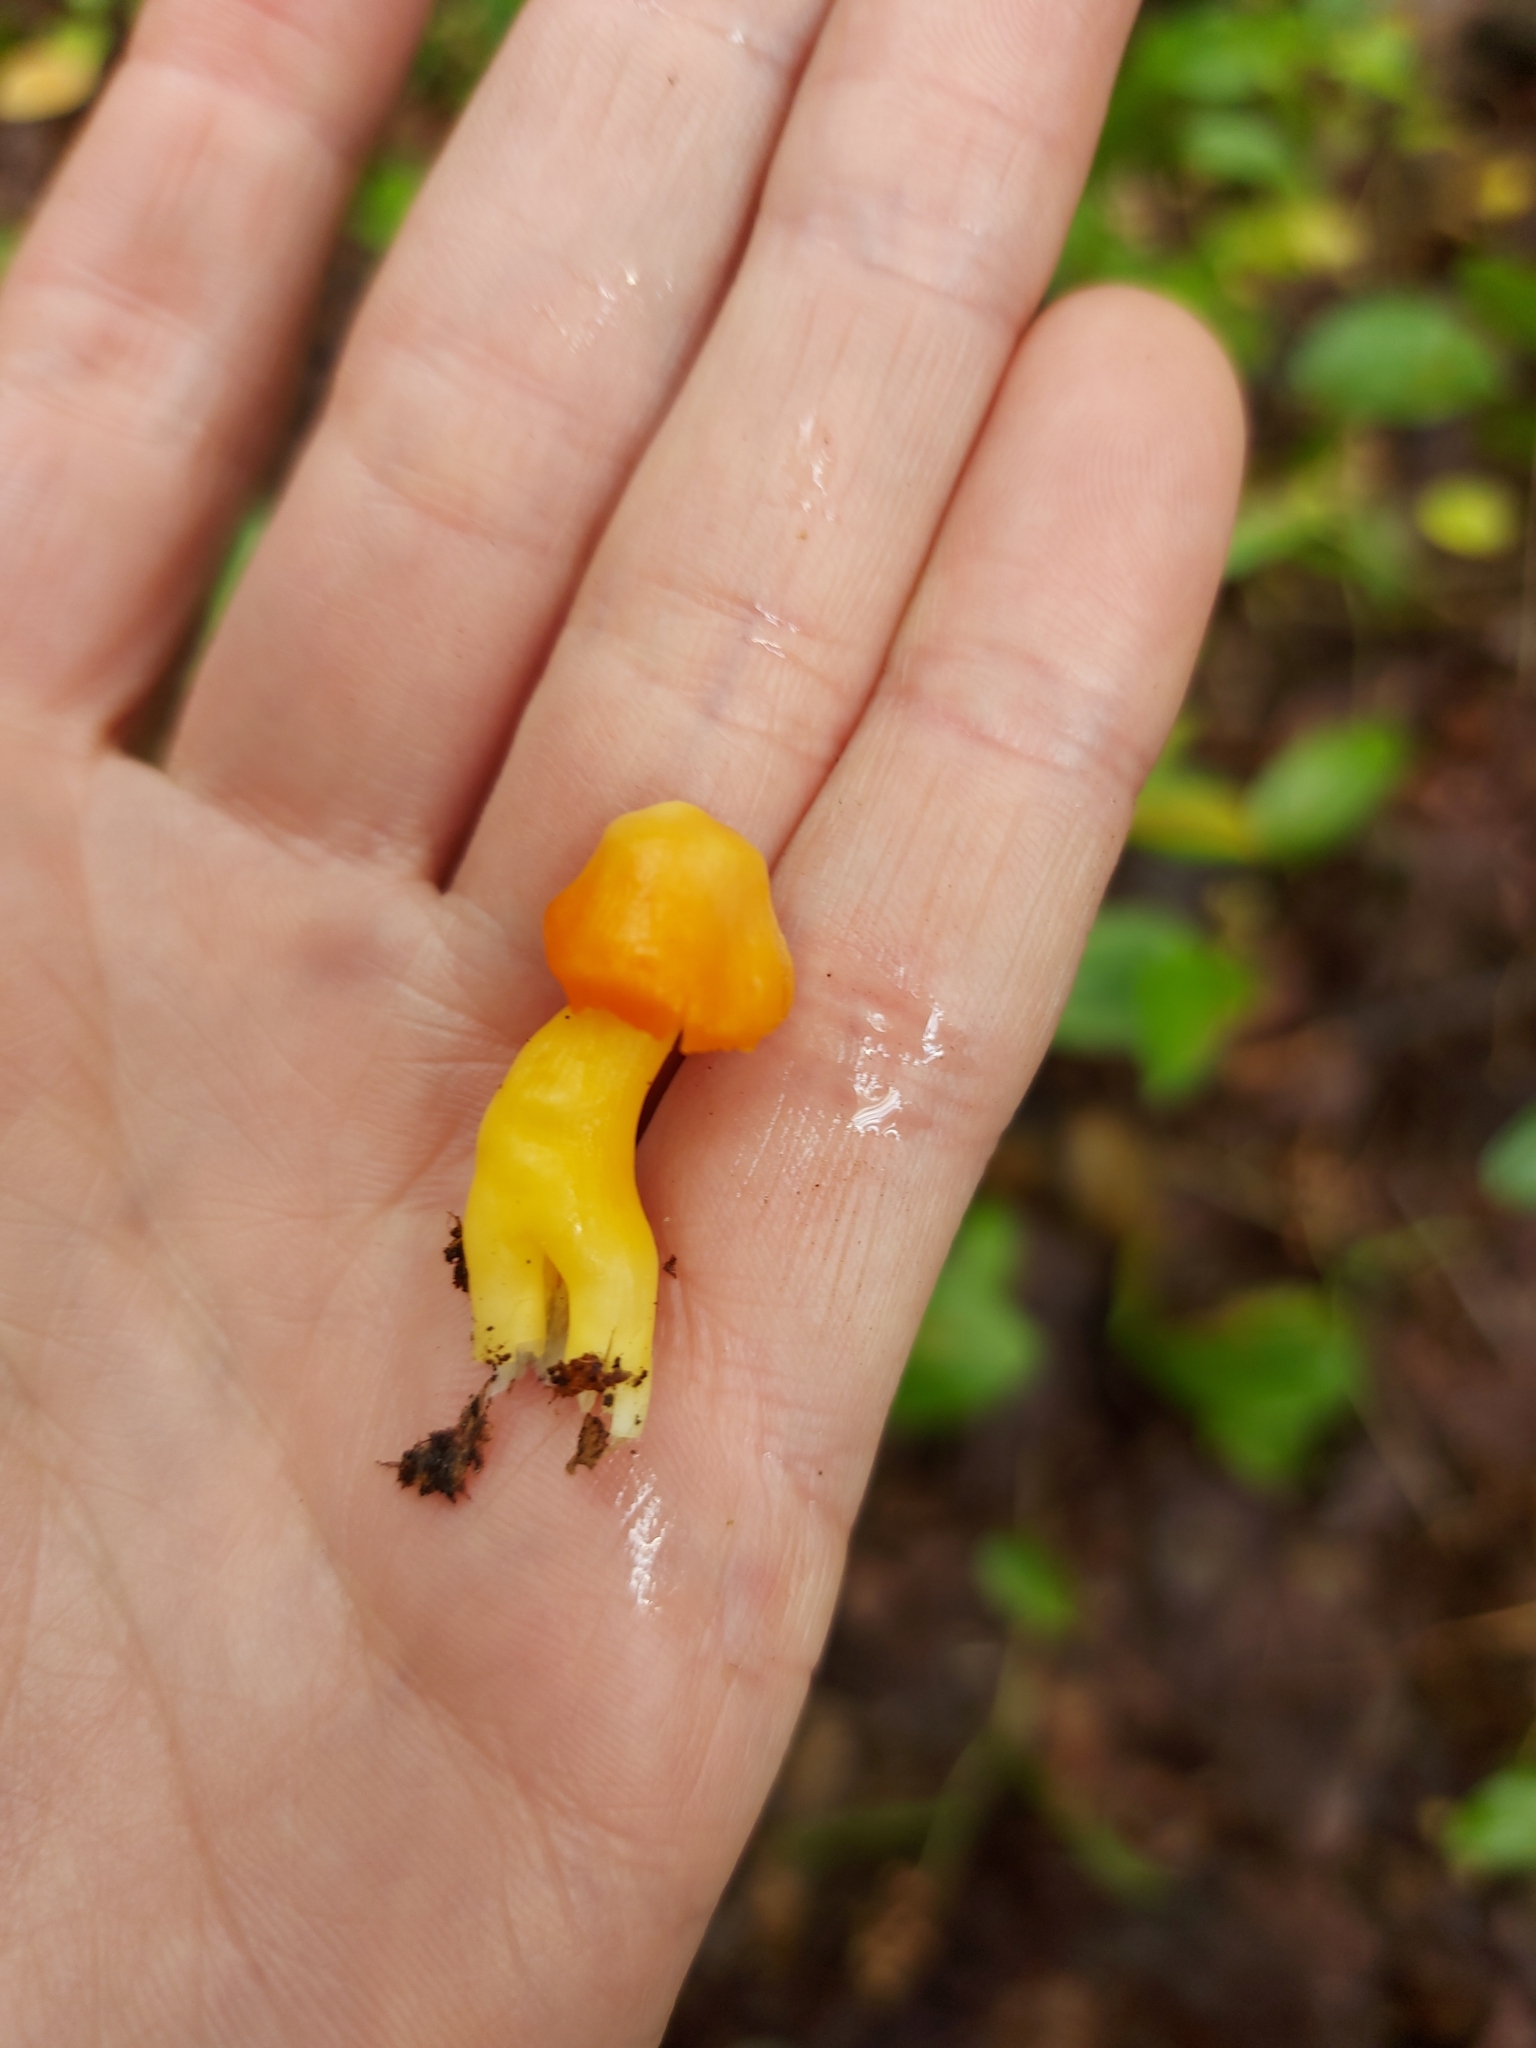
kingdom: Fungi
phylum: Basidiomycota
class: Agaricomycetes
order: Agaricales
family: Hygrophoraceae
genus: Humidicutis
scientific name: Humidicutis marginata
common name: Orange gilled waxcap
